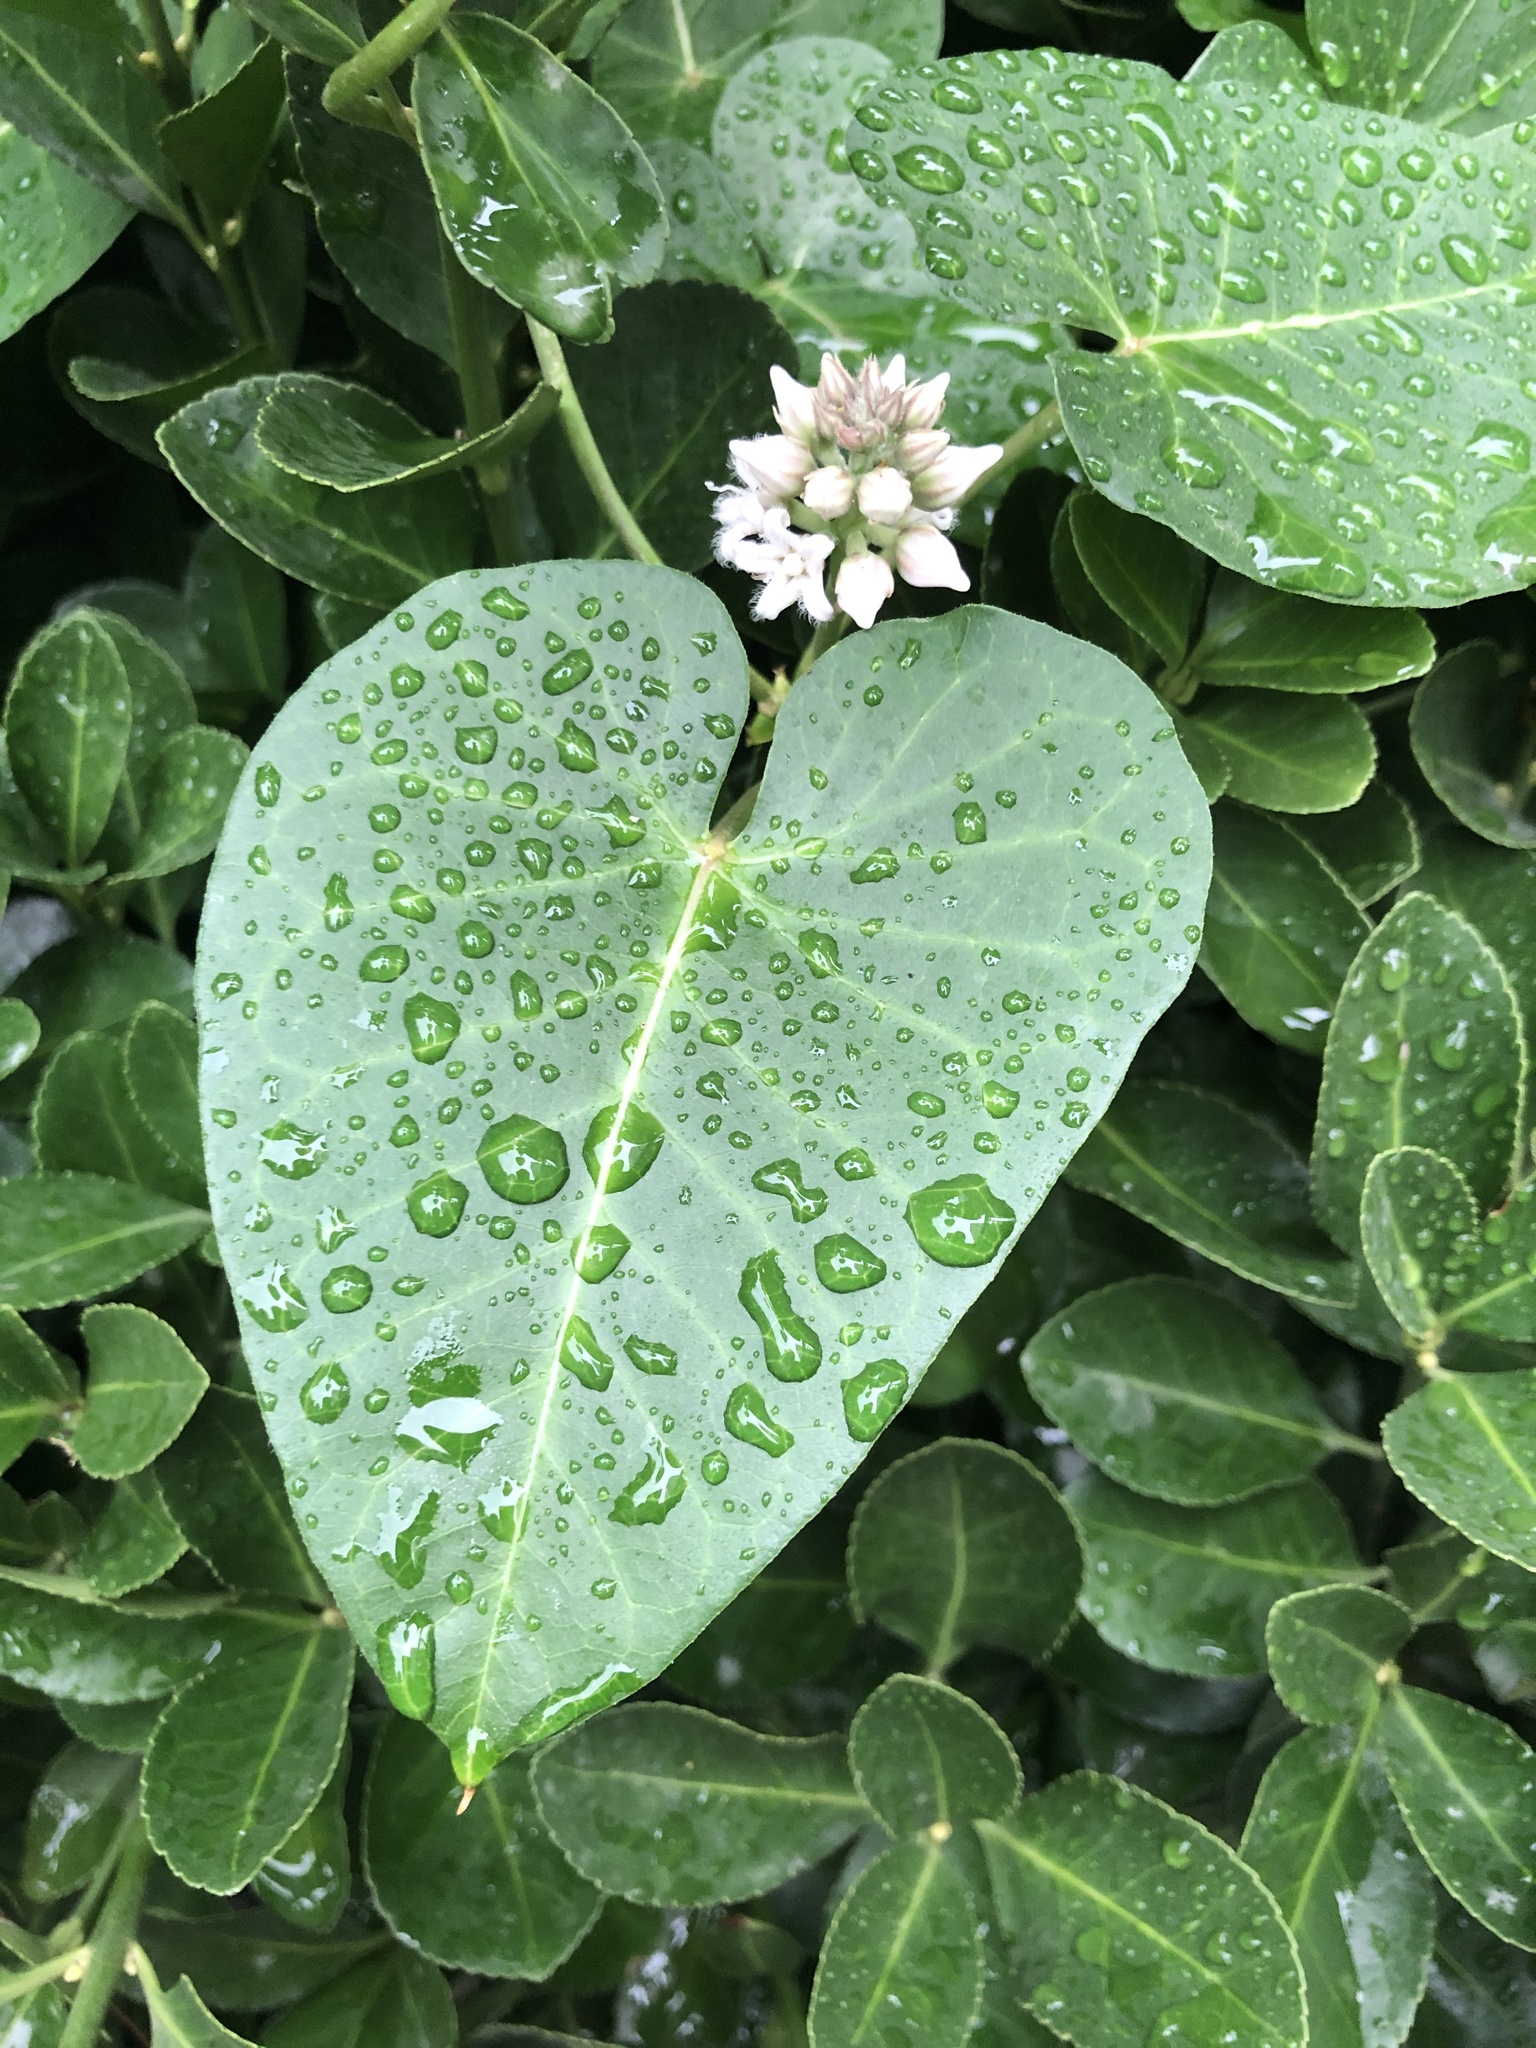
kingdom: Plantae
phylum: Tracheophyta
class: Magnoliopsida
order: Gentianales
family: Apocynaceae
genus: Cynanchum
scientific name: Cynanchum rostellatum
